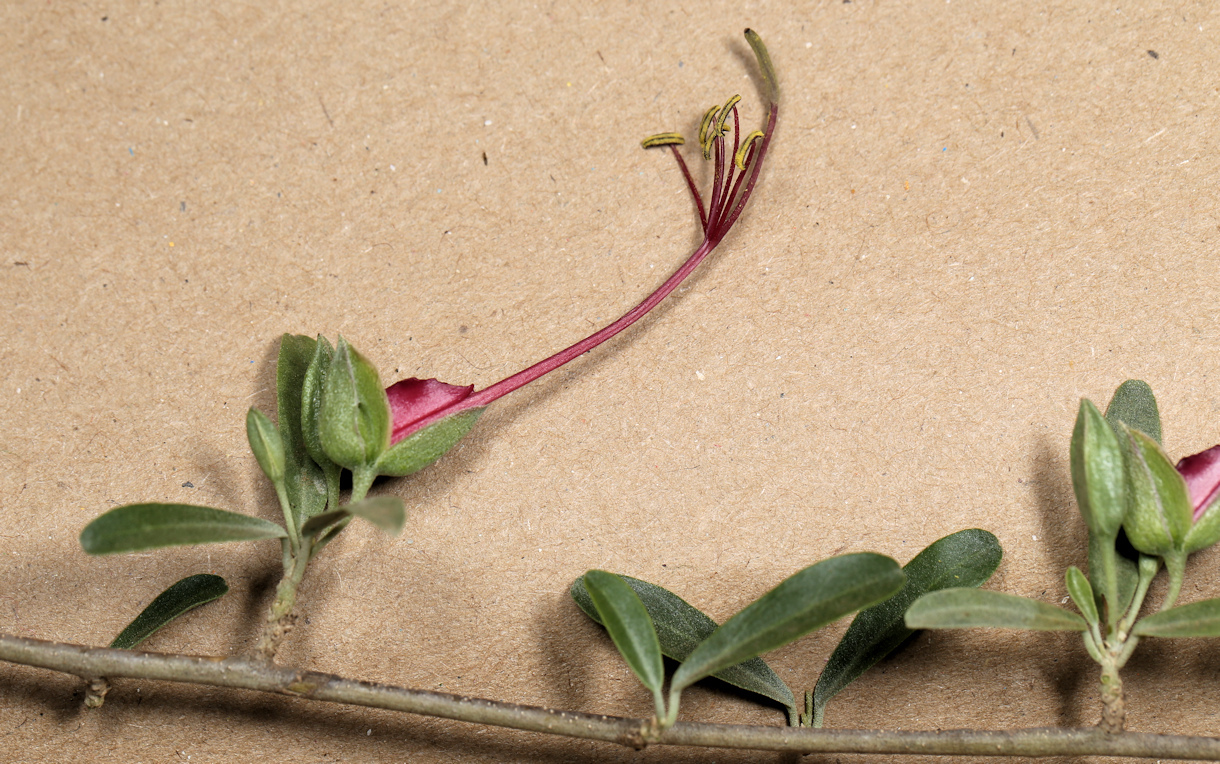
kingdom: Plantae
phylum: Tracheophyta
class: Magnoliopsida
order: Brassicales
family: Capparaceae
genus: Cadaba
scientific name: Cadaba termitaria
